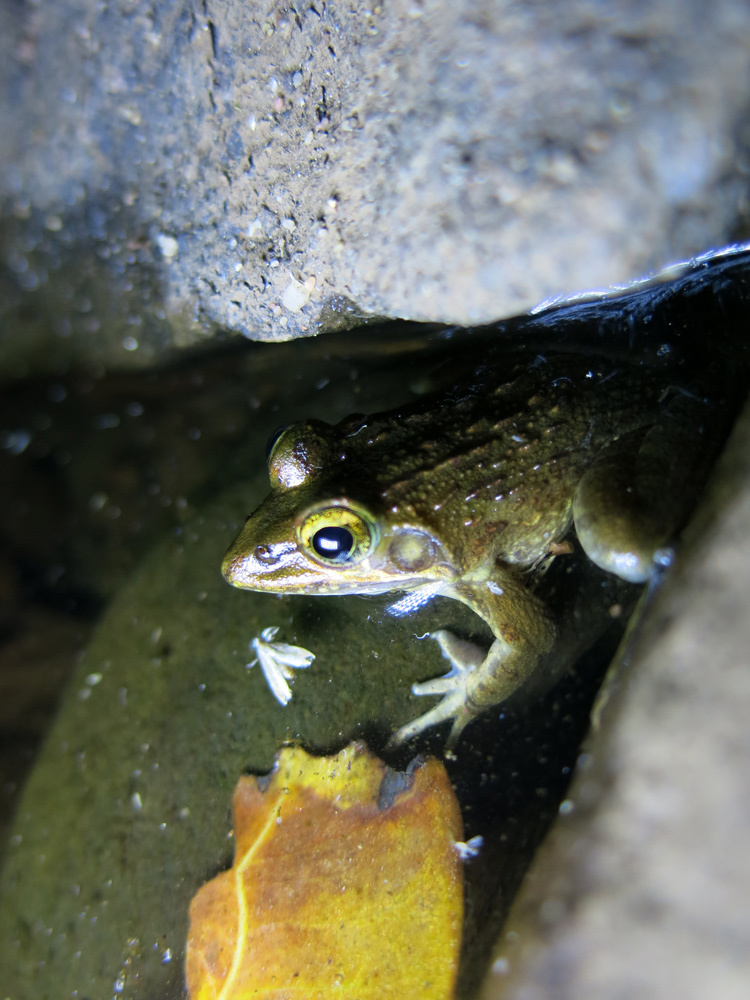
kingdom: Animalia
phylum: Chordata
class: Amphibia
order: Anura
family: Pyxicephalidae
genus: Amietia
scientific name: Amietia delalandii
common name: Delalande's river frog
